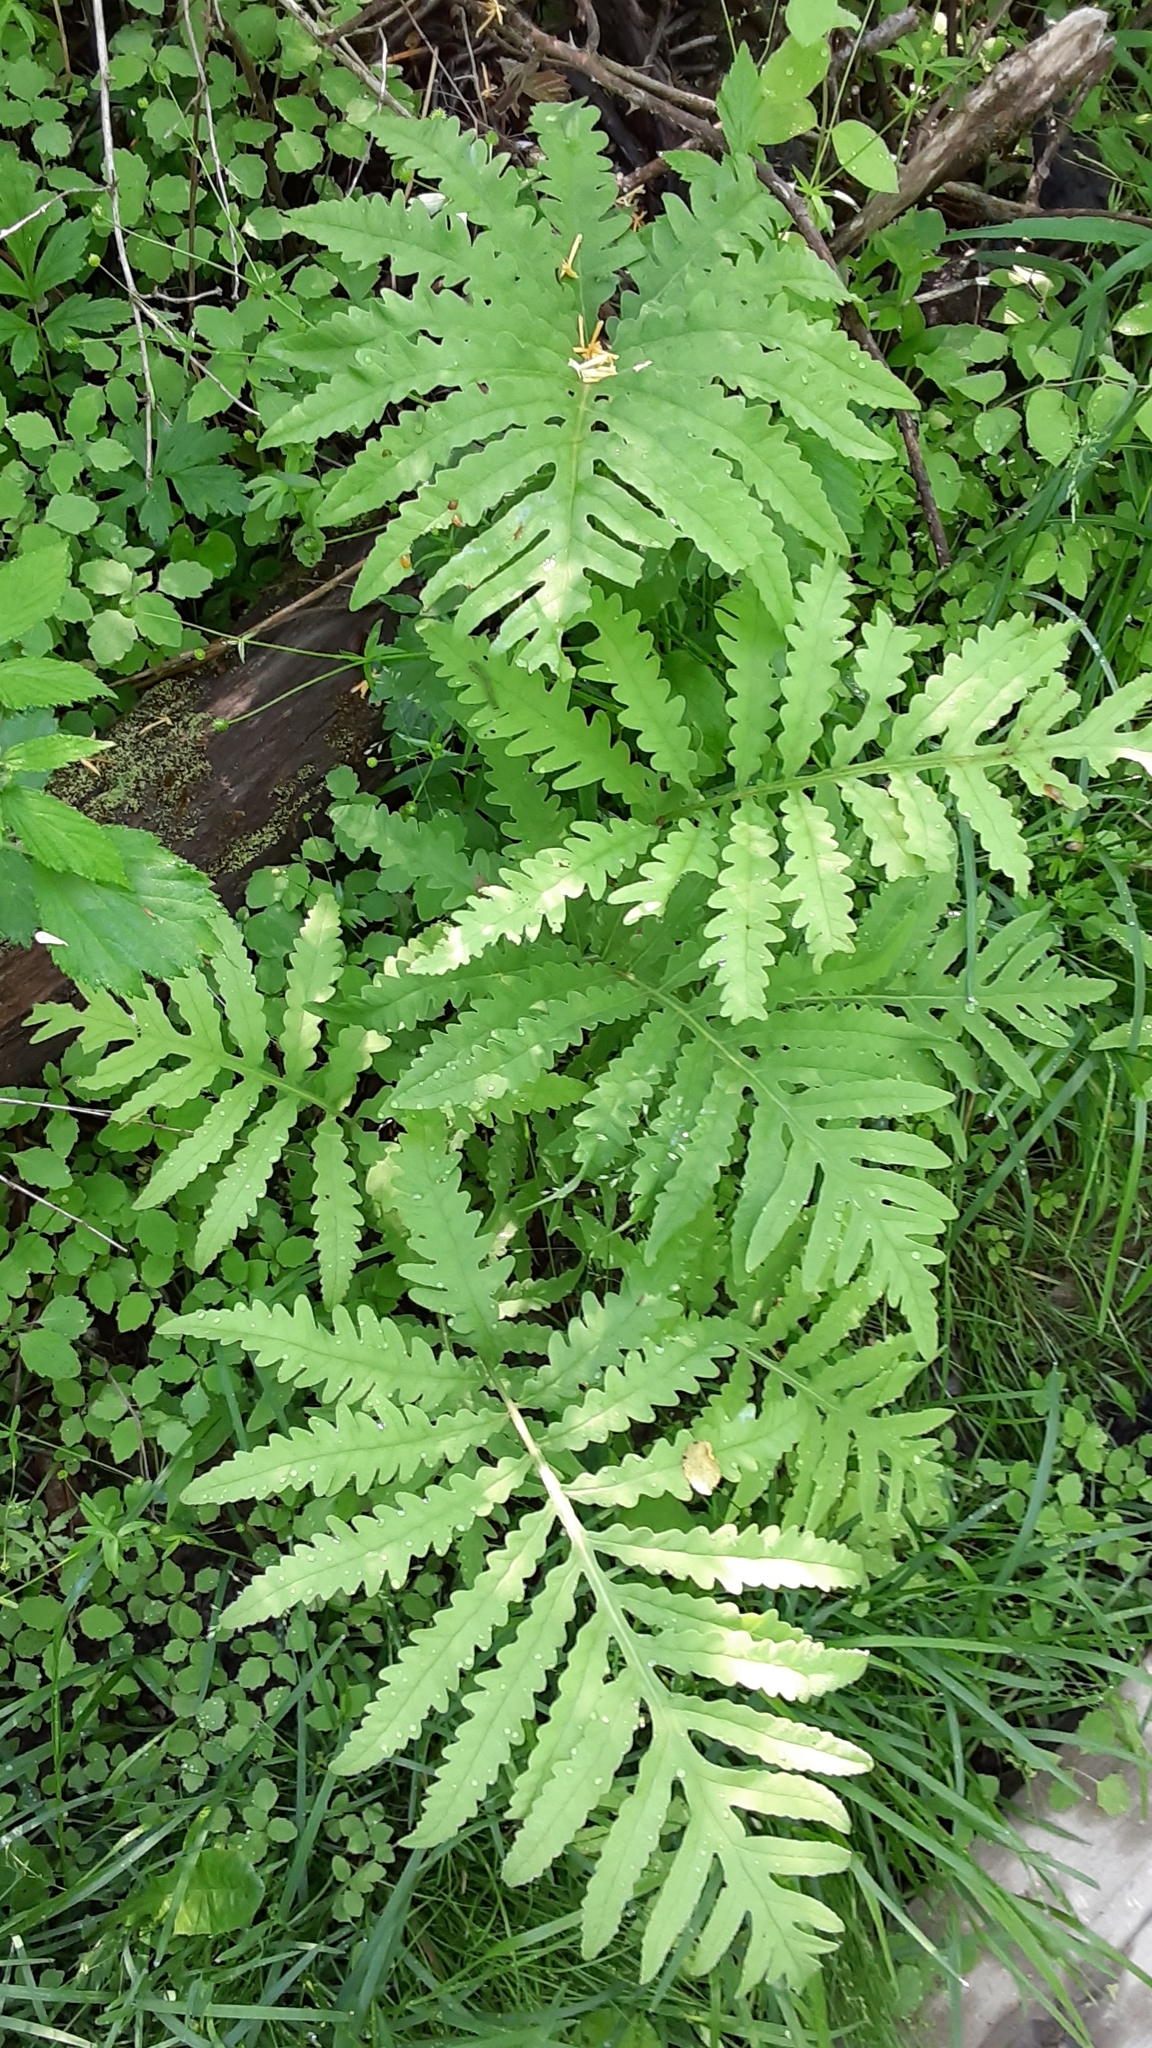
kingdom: Plantae
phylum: Tracheophyta
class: Polypodiopsida
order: Polypodiales
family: Onocleaceae
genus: Onoclea
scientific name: Onoclea sensibilis
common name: Sensitive fern
